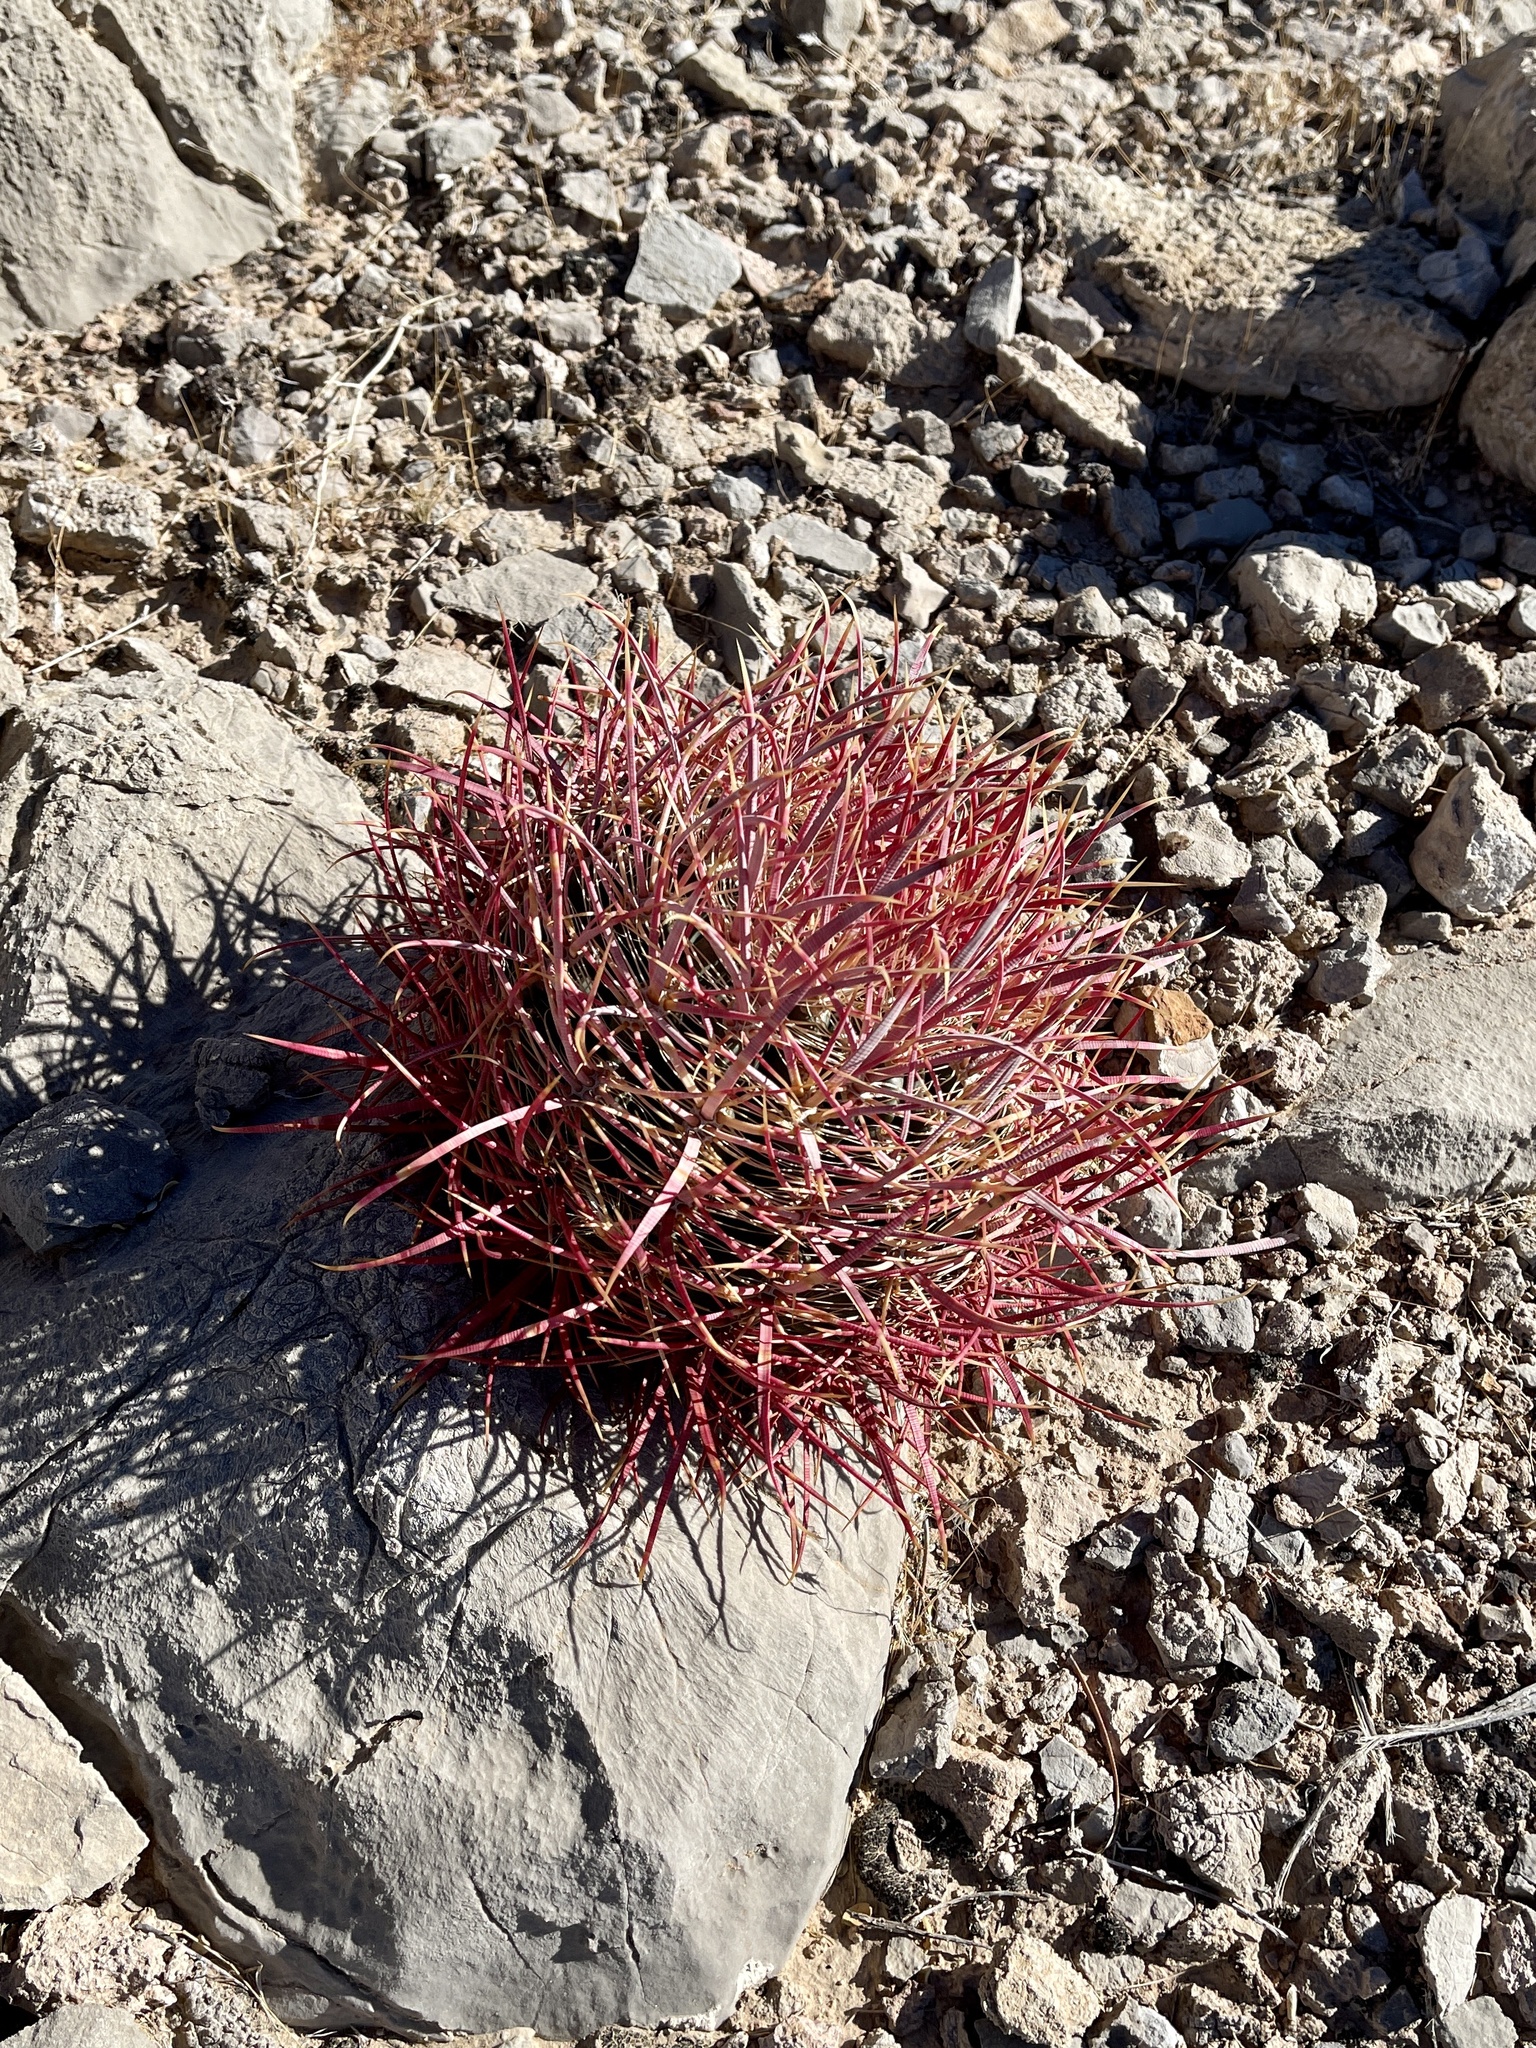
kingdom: Plantae
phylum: Tracheophyta
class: Magnoliopsida
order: Caryophyllales
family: Cactaceae
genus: Ferocactus
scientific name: Ferocactus cylindraceus
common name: California barrel cactus
